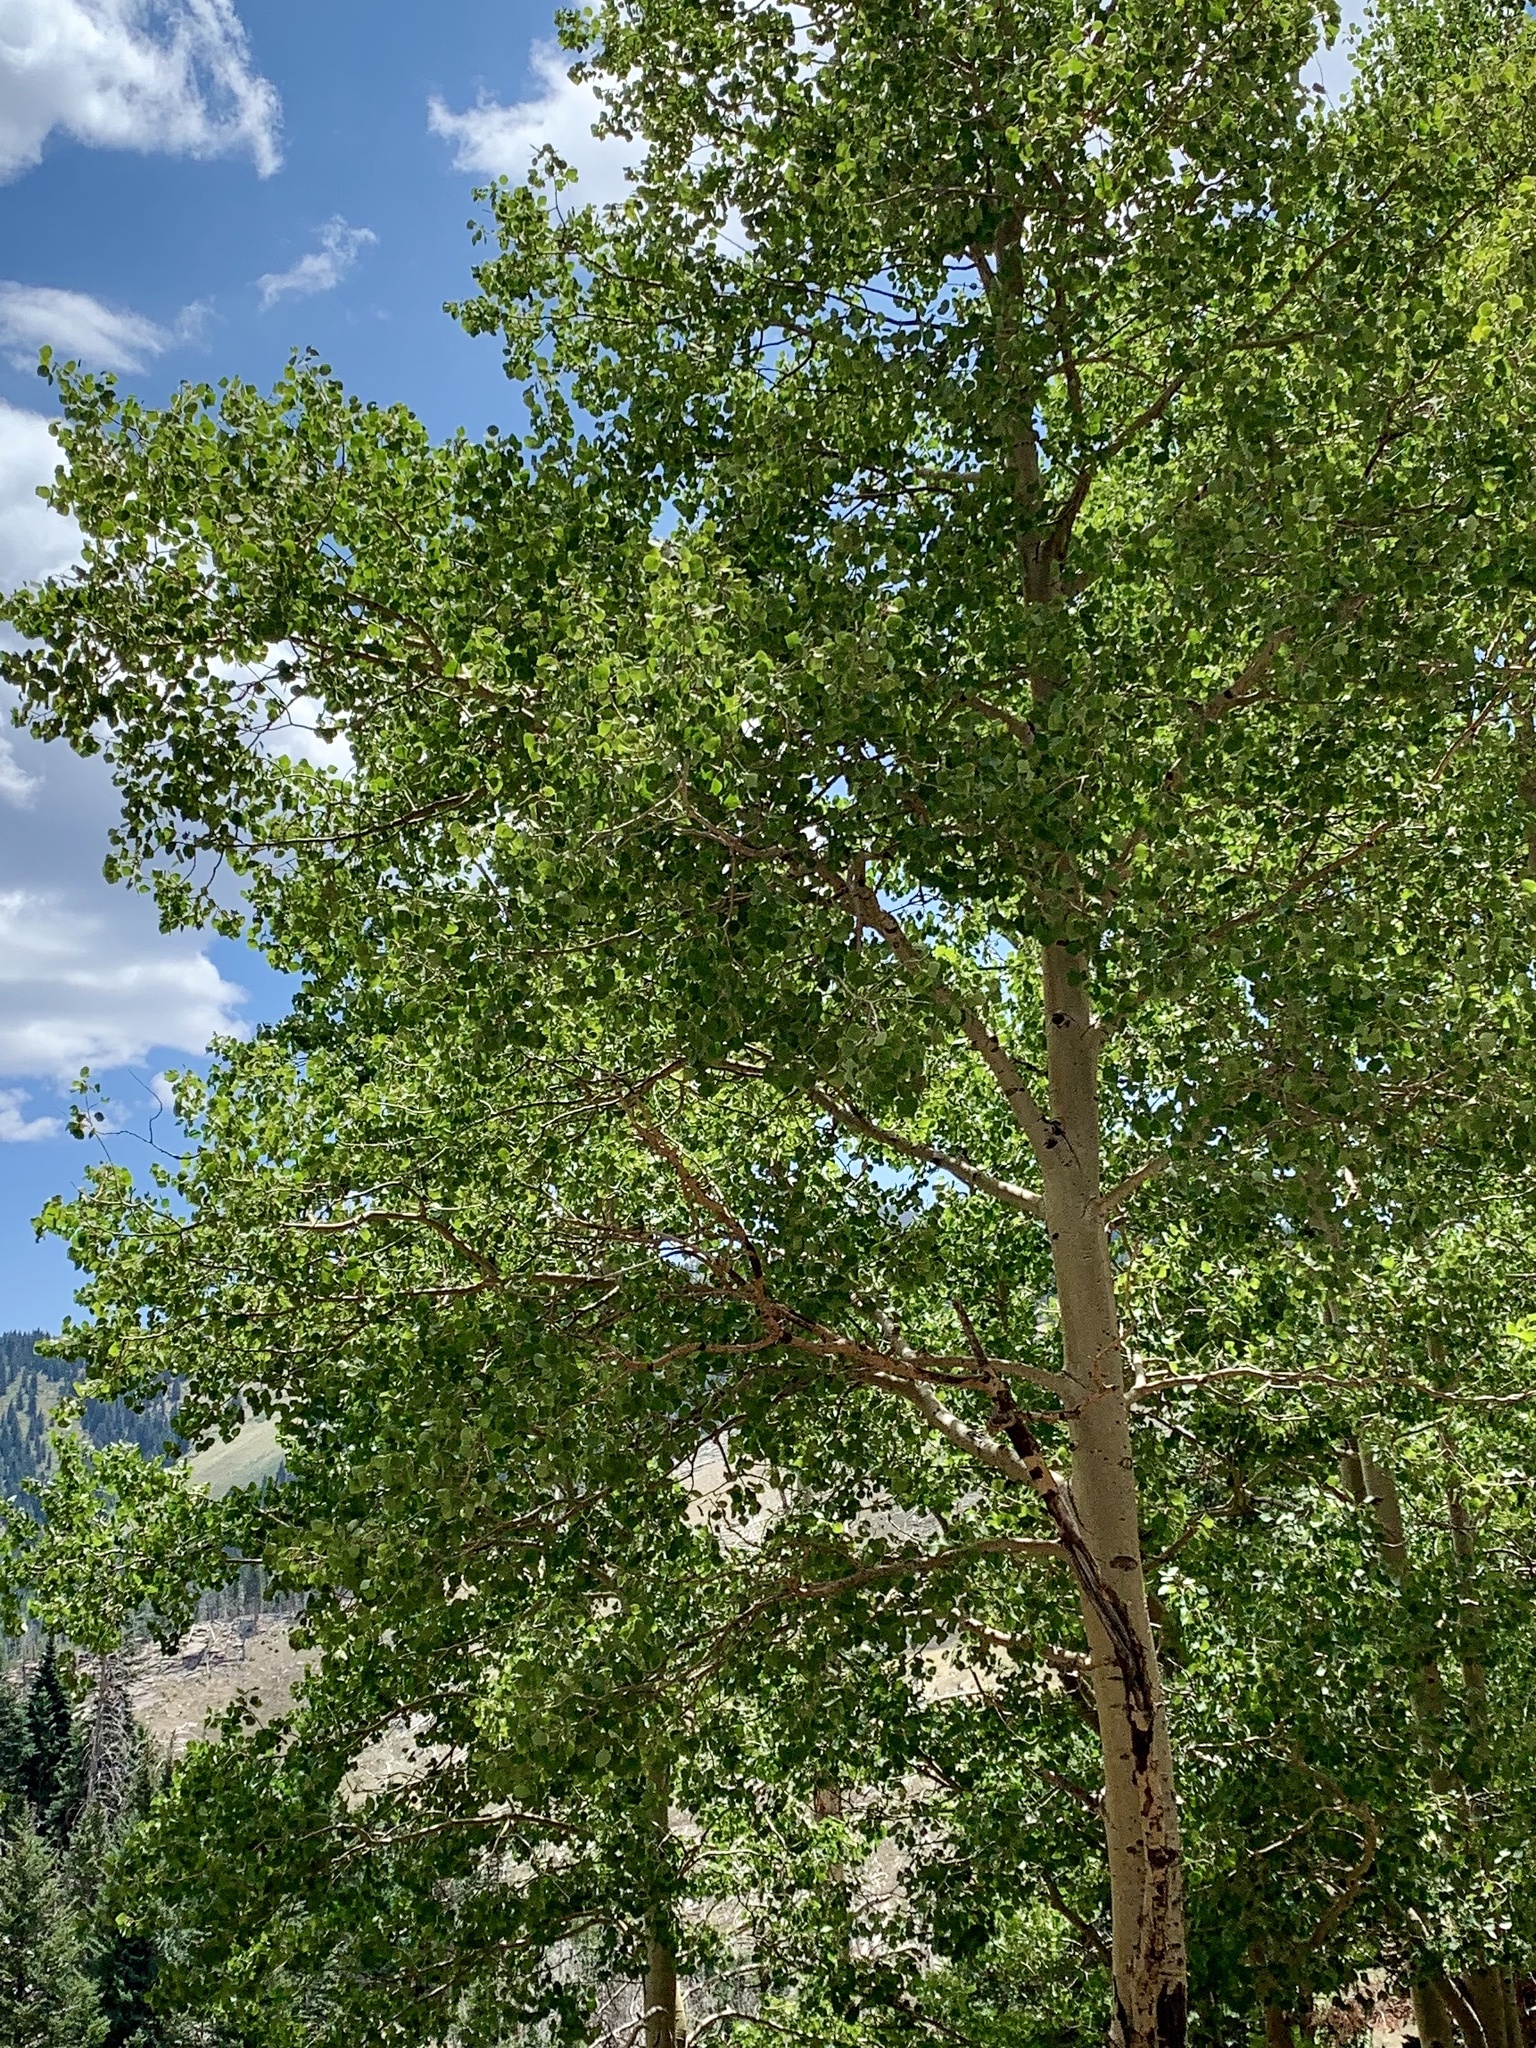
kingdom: Plantae
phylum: Tracheophyta
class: Magnoliopsida
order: Malpighiales
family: Salicaceae
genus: Populus
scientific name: Populus tremuloides
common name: Quaking aspen
